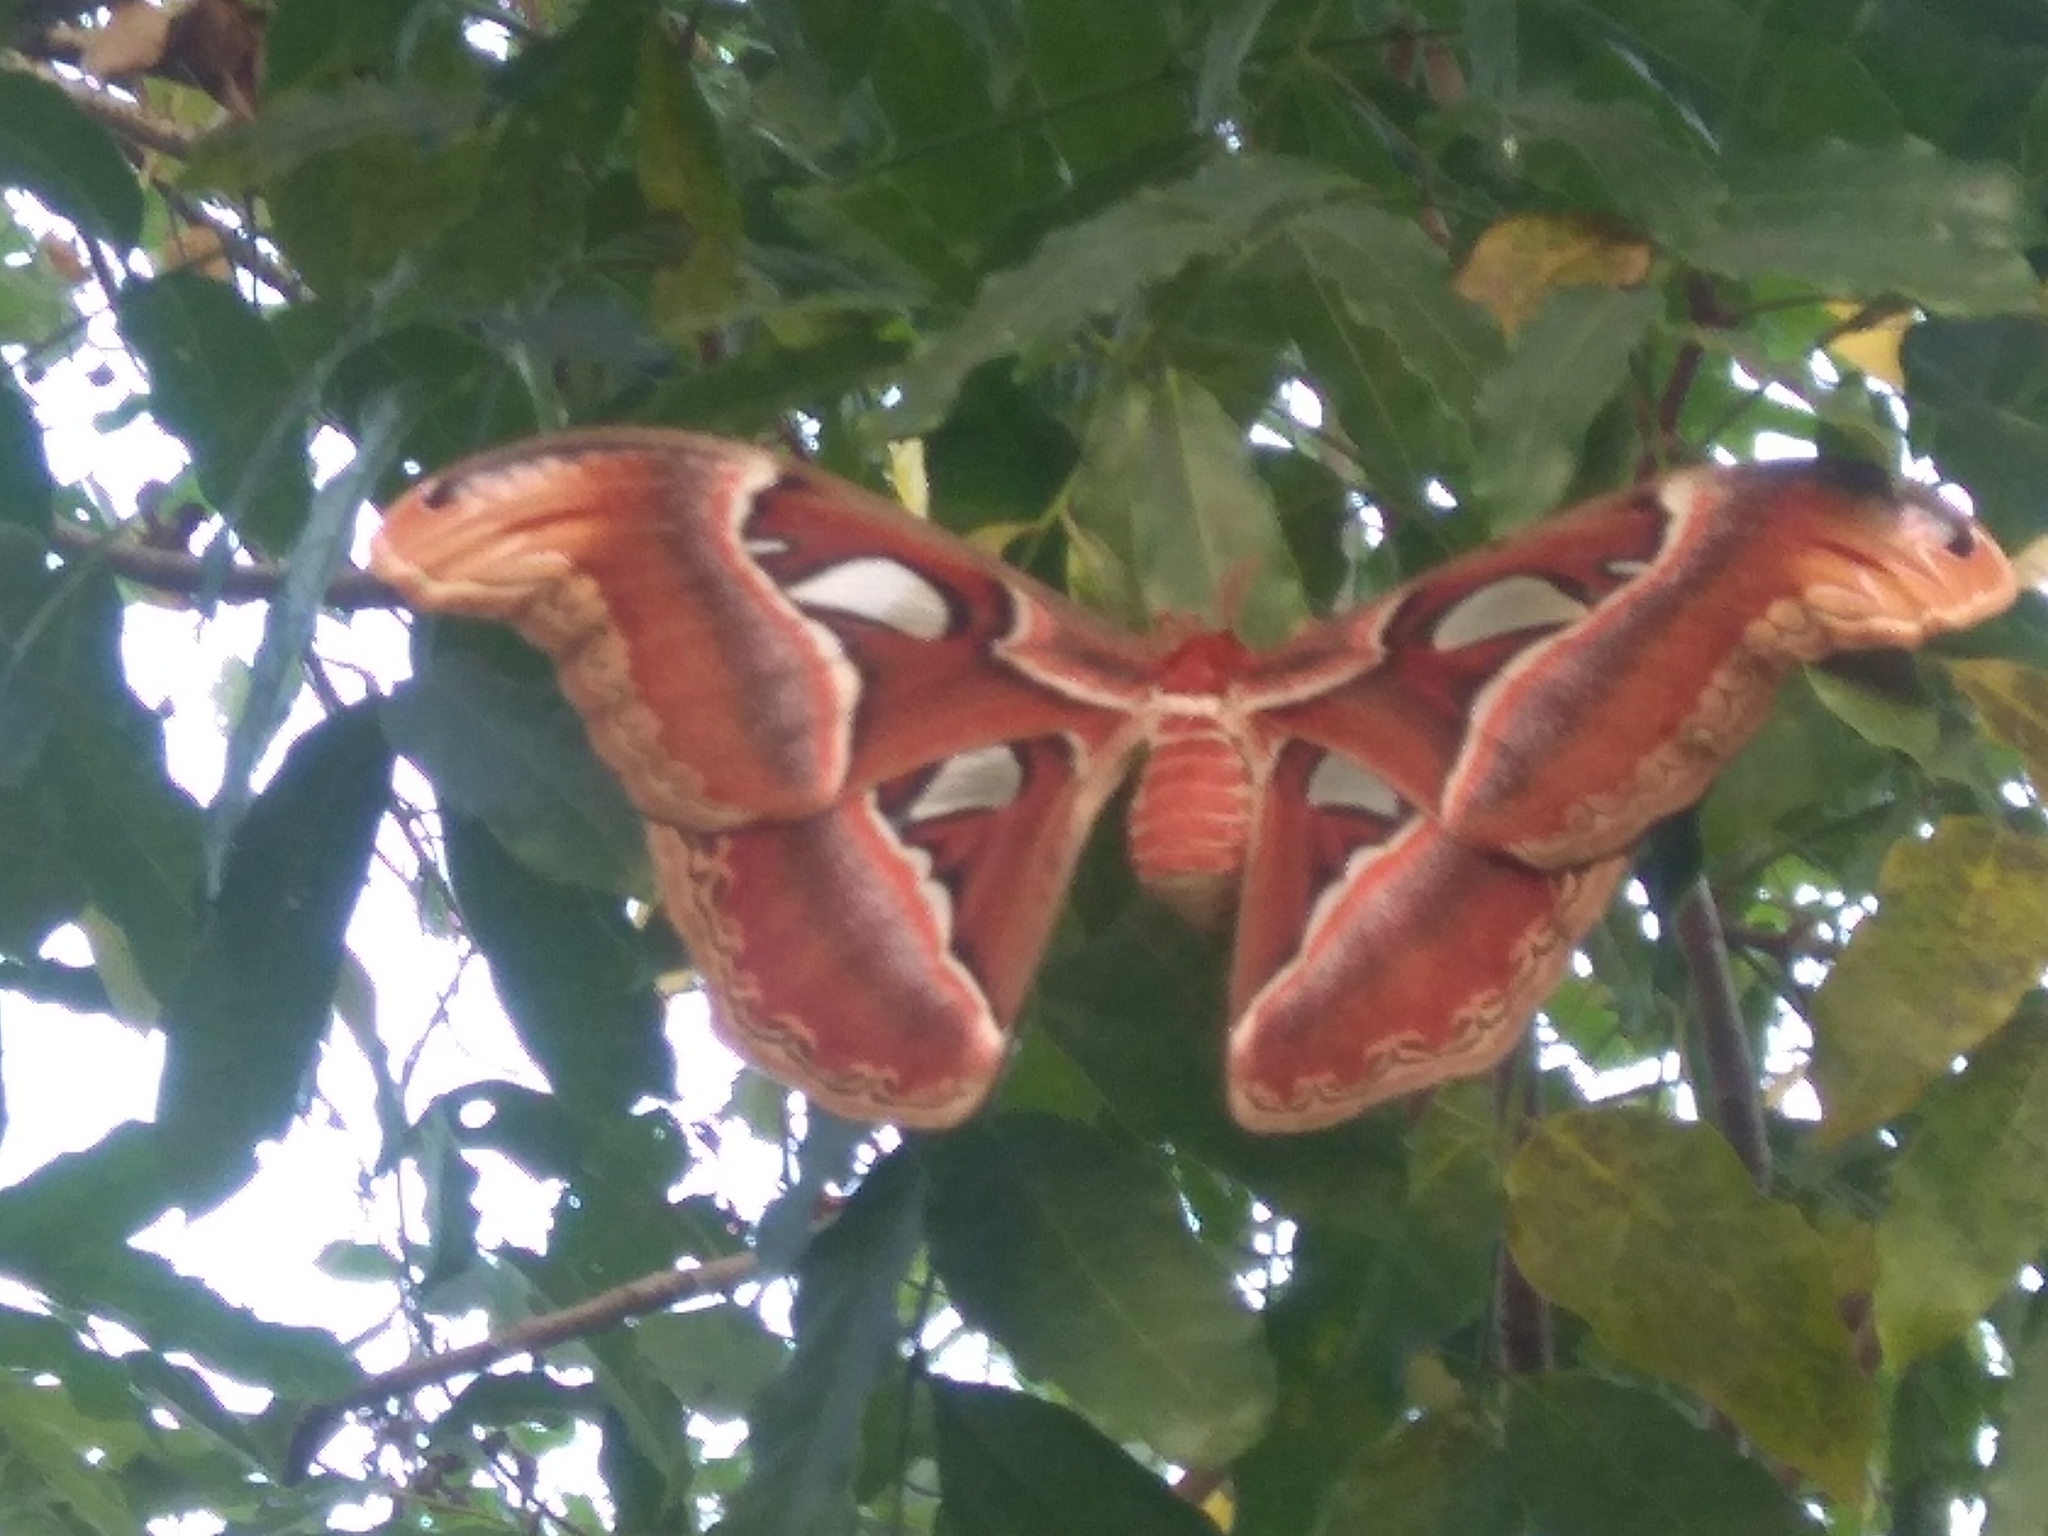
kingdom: Animalia
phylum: Arthropoda
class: Insecta
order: Lepidoptera
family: Saturniidae
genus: Attacus
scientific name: Attacus taprobanis
